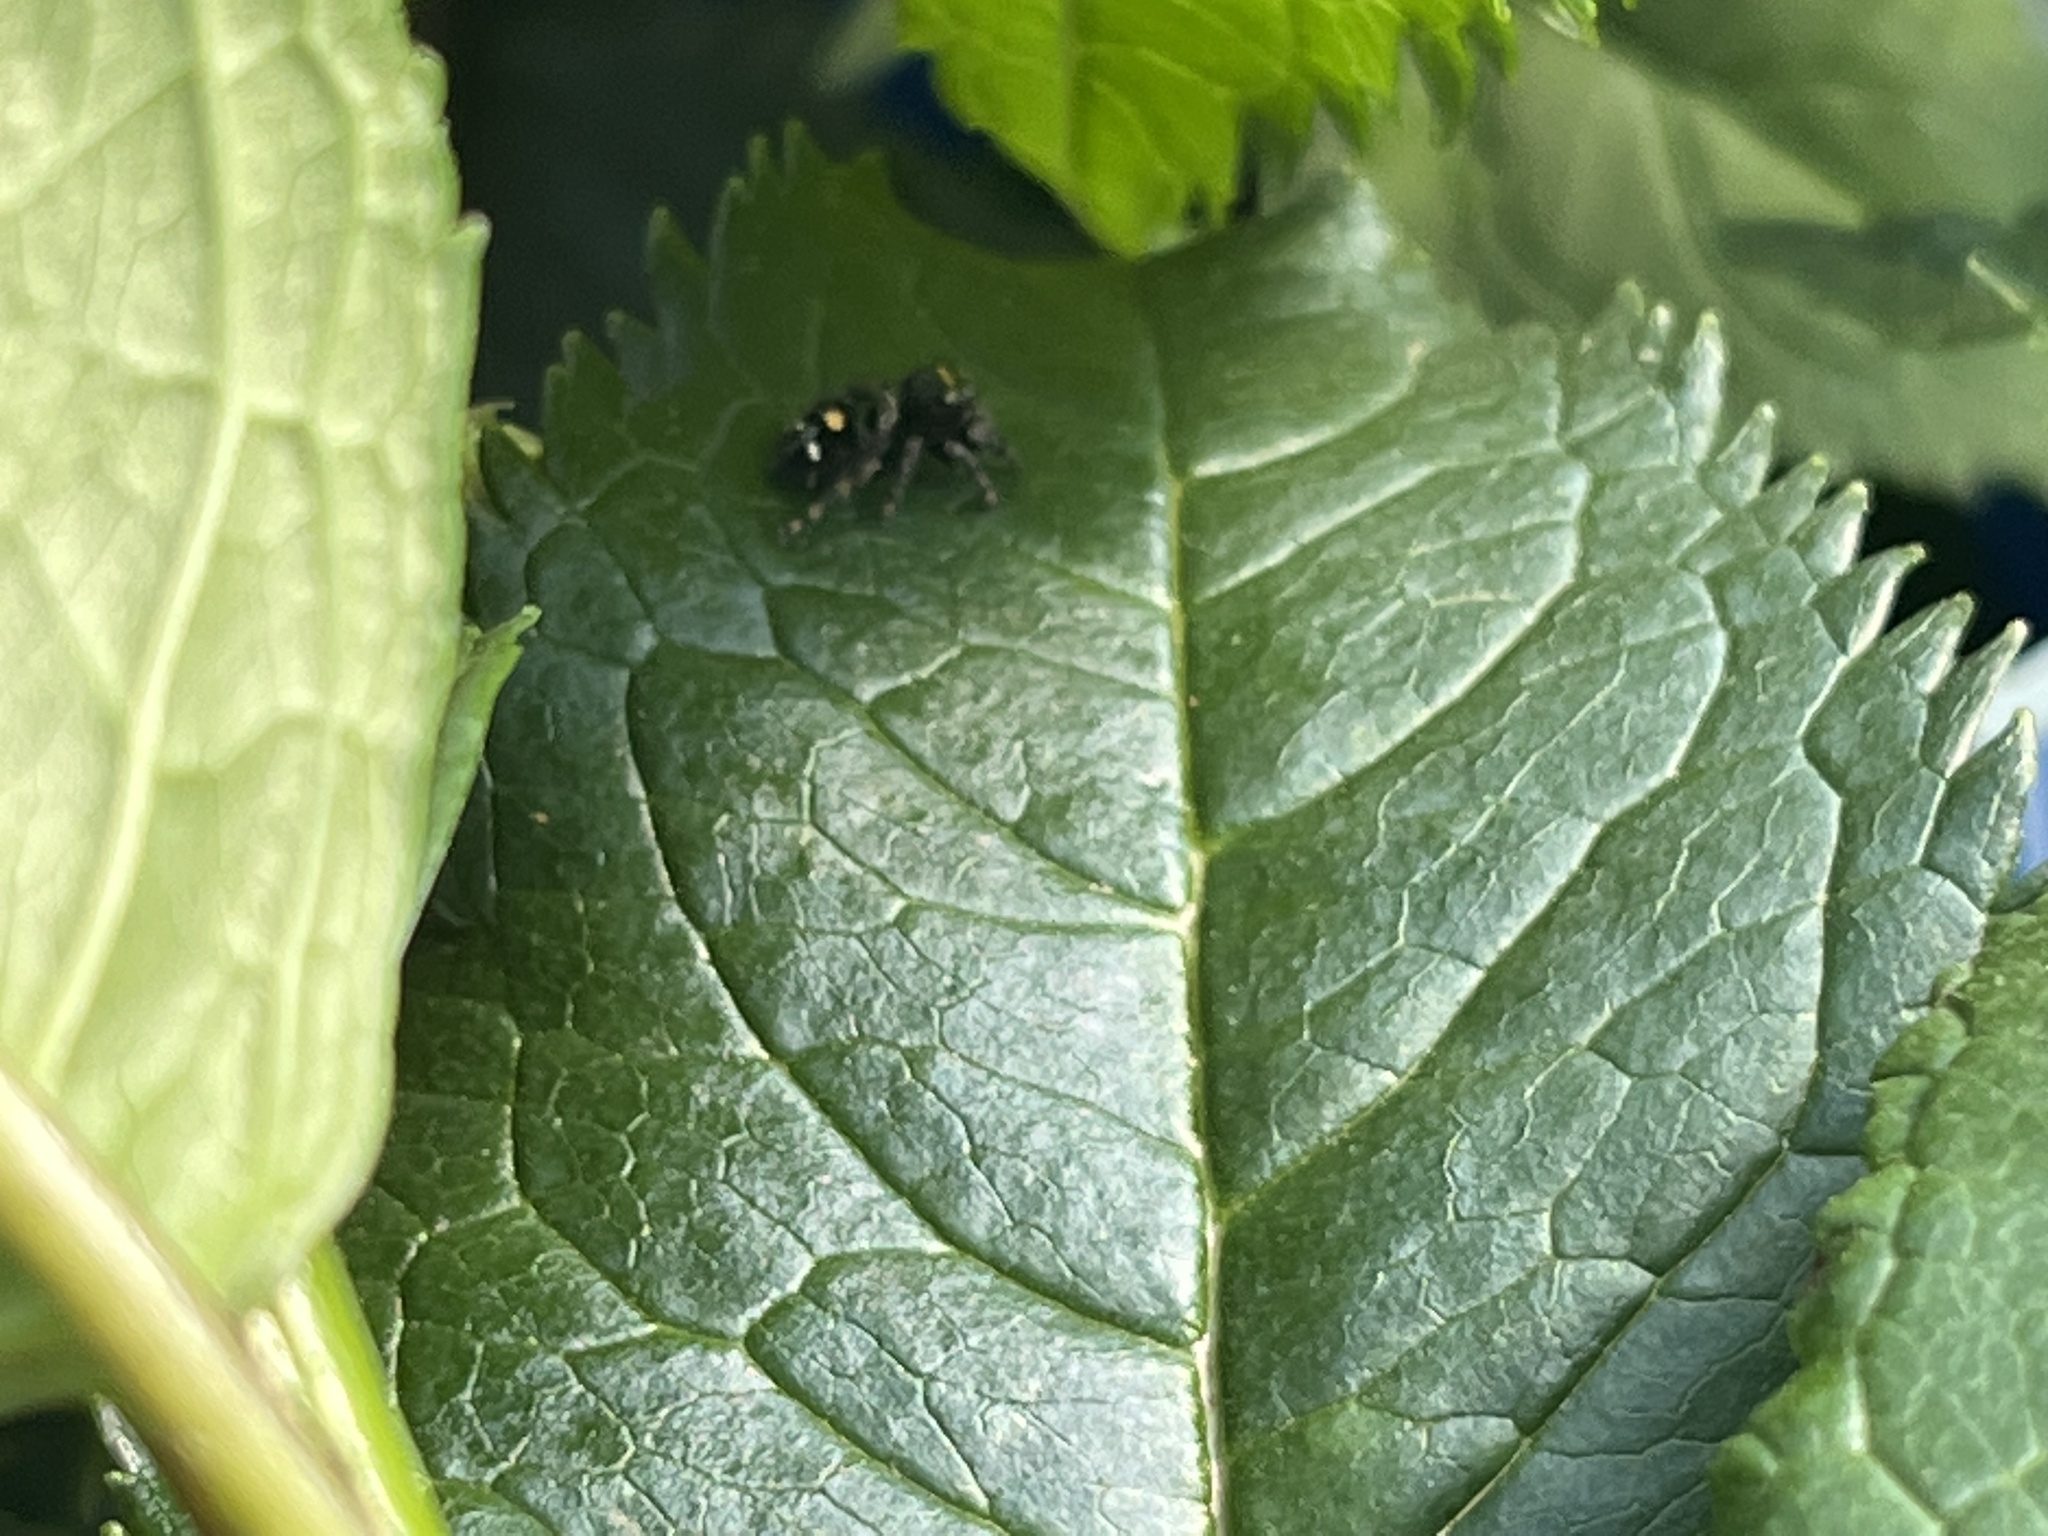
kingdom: Animalia
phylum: Arthropoda
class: Arachnida
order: Araneae
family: Salticidae
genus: Phidippus
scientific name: Phidippus audax
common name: Bold jumper
